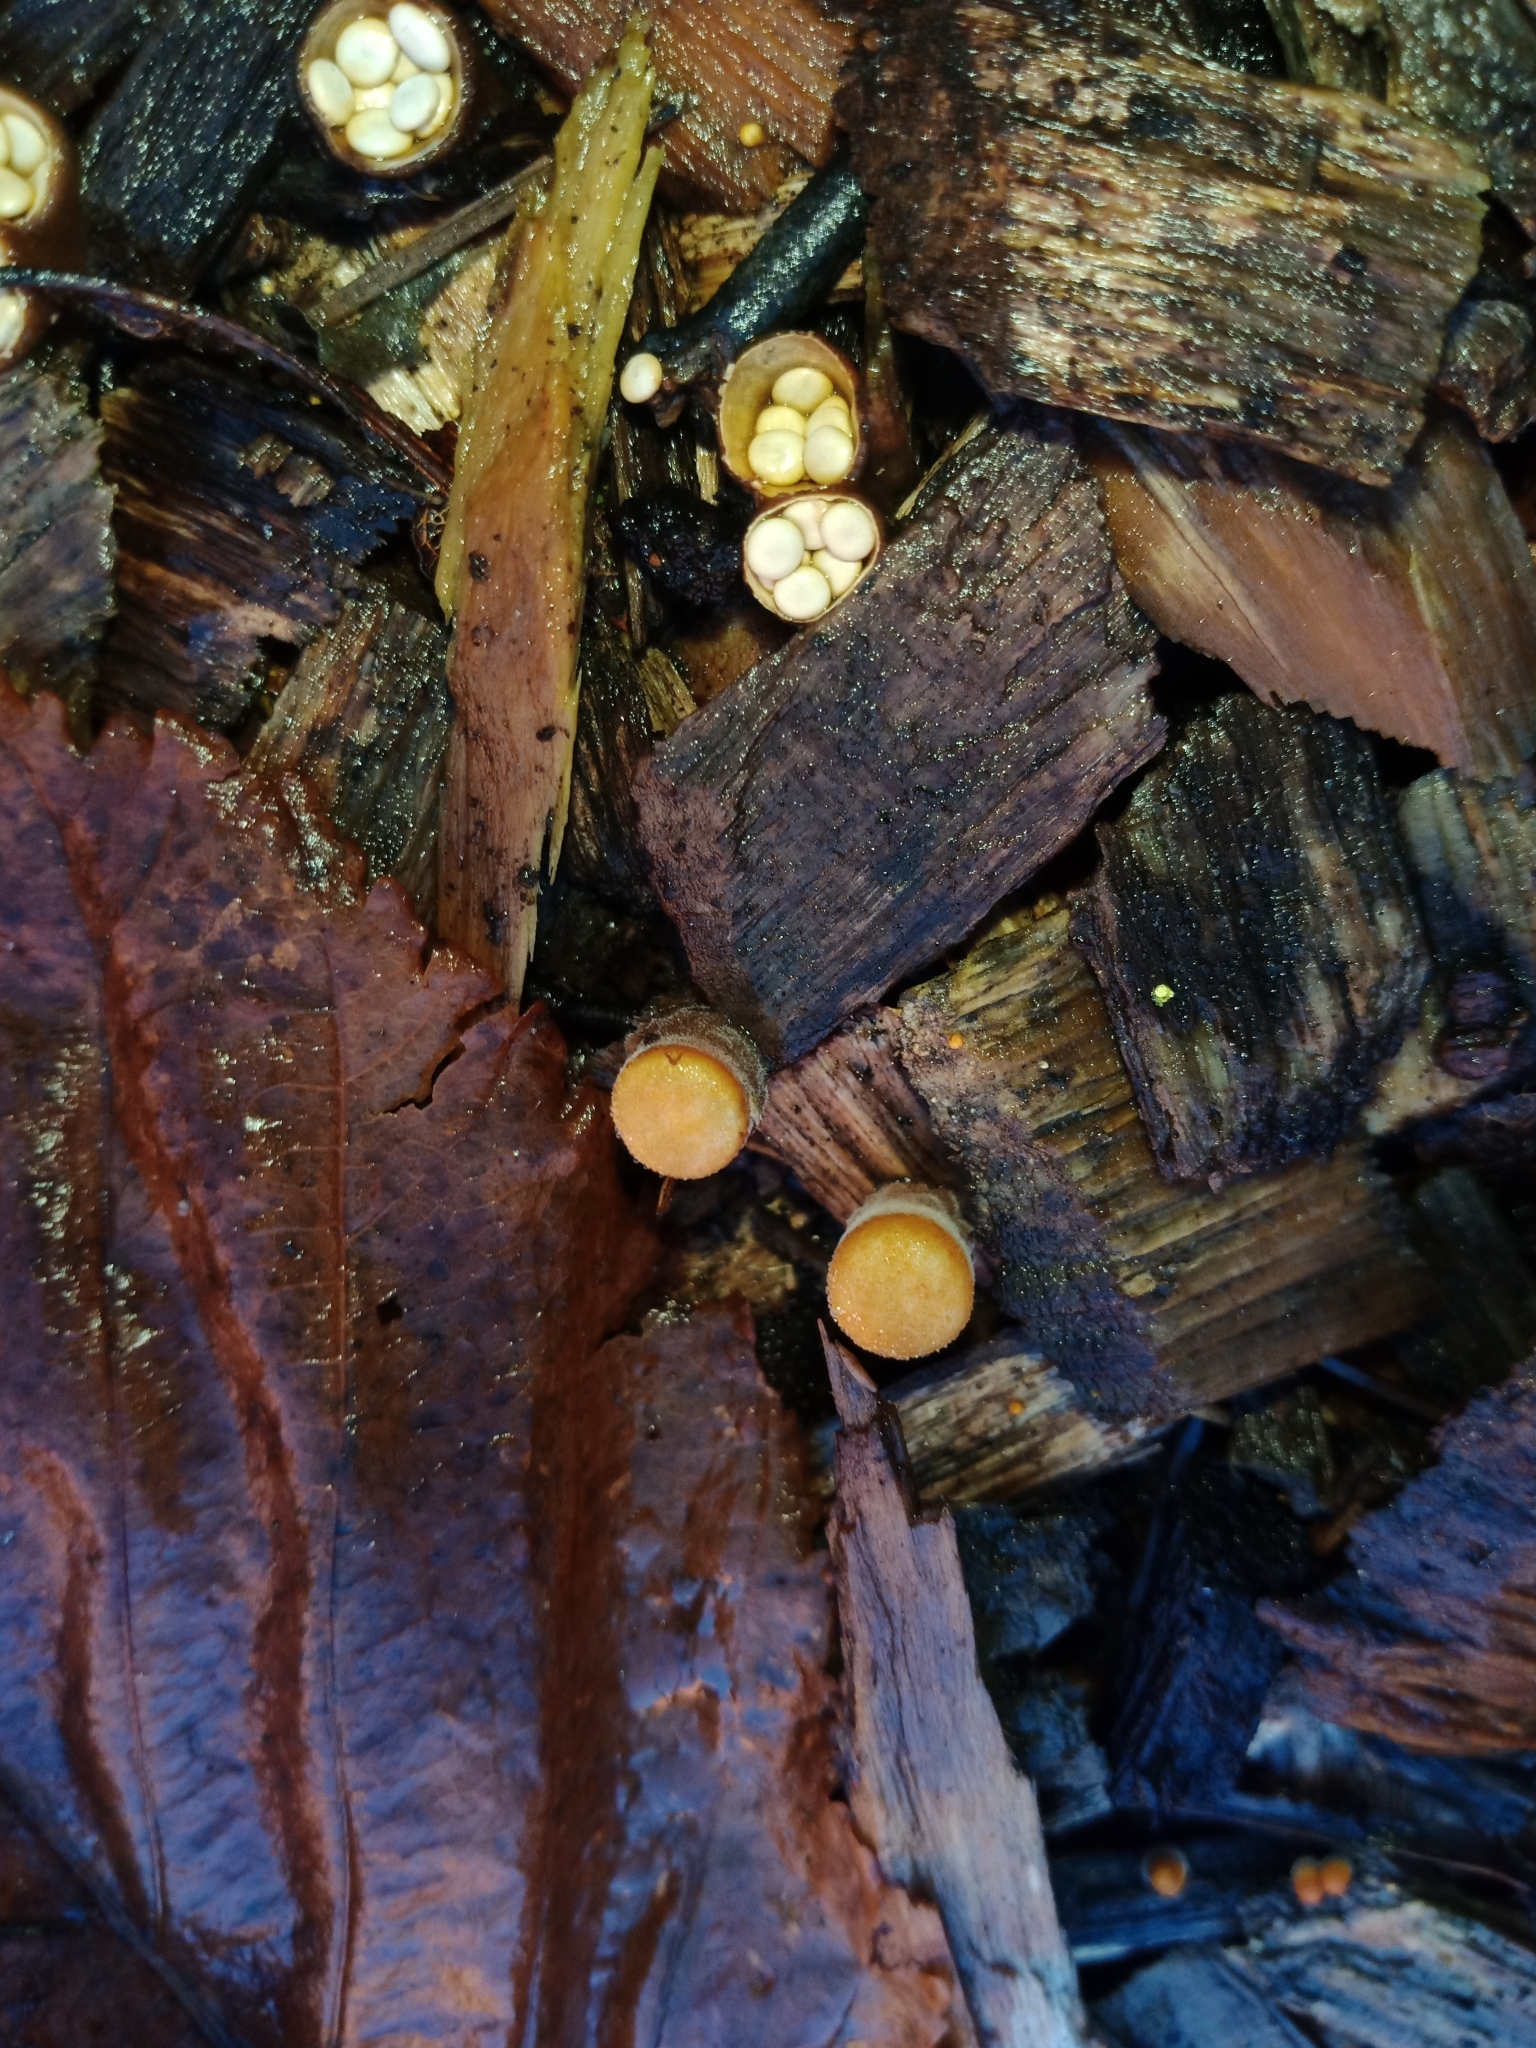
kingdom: Fungi
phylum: Basidiomycota
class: Agaricomycetes
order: Agaricales
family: Nidulariaceae
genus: Crucibulum
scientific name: Crucibulum simile
